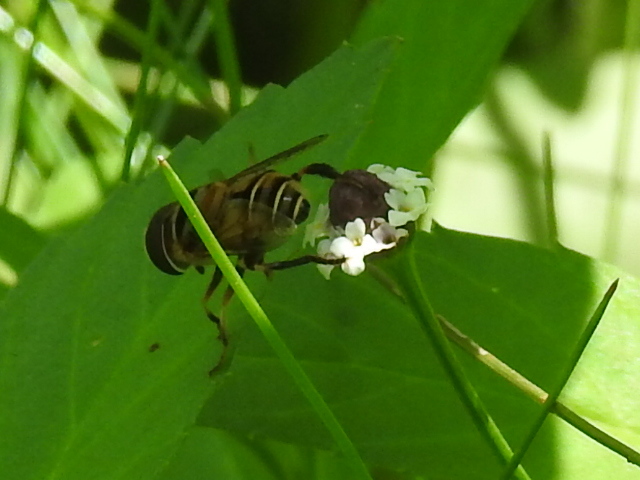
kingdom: Animalia
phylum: Arthropoda
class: Insecta
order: Diptera
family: Syrphidae
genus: Palpada
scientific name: Palpada vinetorum
